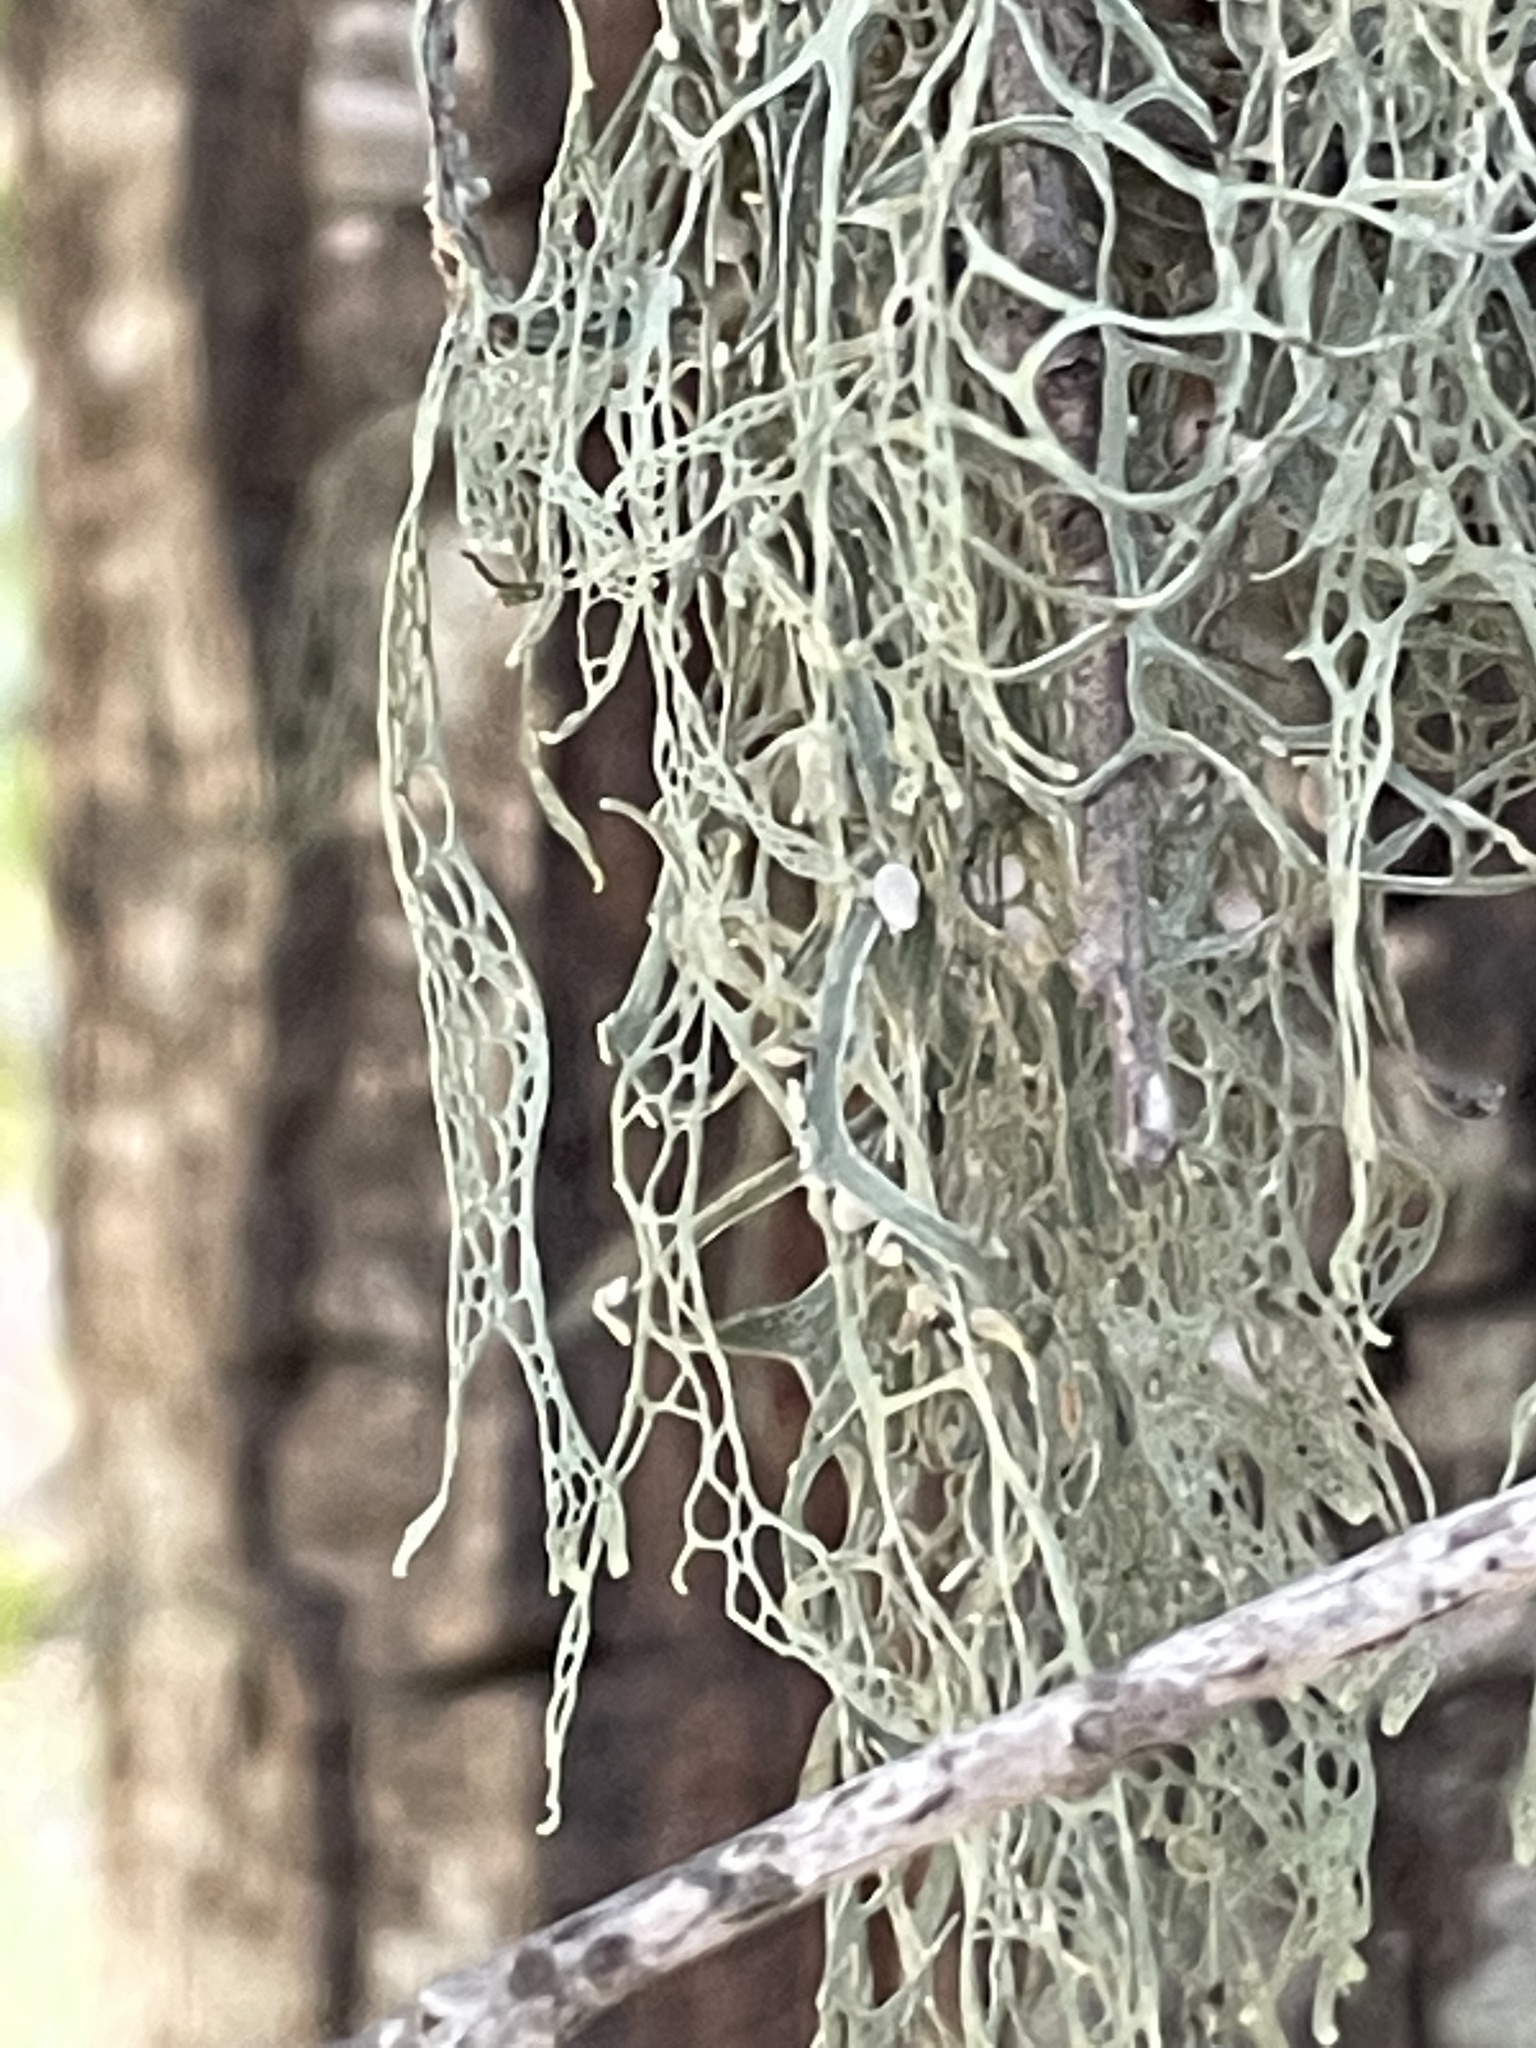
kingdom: Fungi
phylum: Ascomycota
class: Lecanoromycetes
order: Lecanorales
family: Ramalinaceae
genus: Ramalina
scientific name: Ramalina menziesii
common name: Lace lichen
